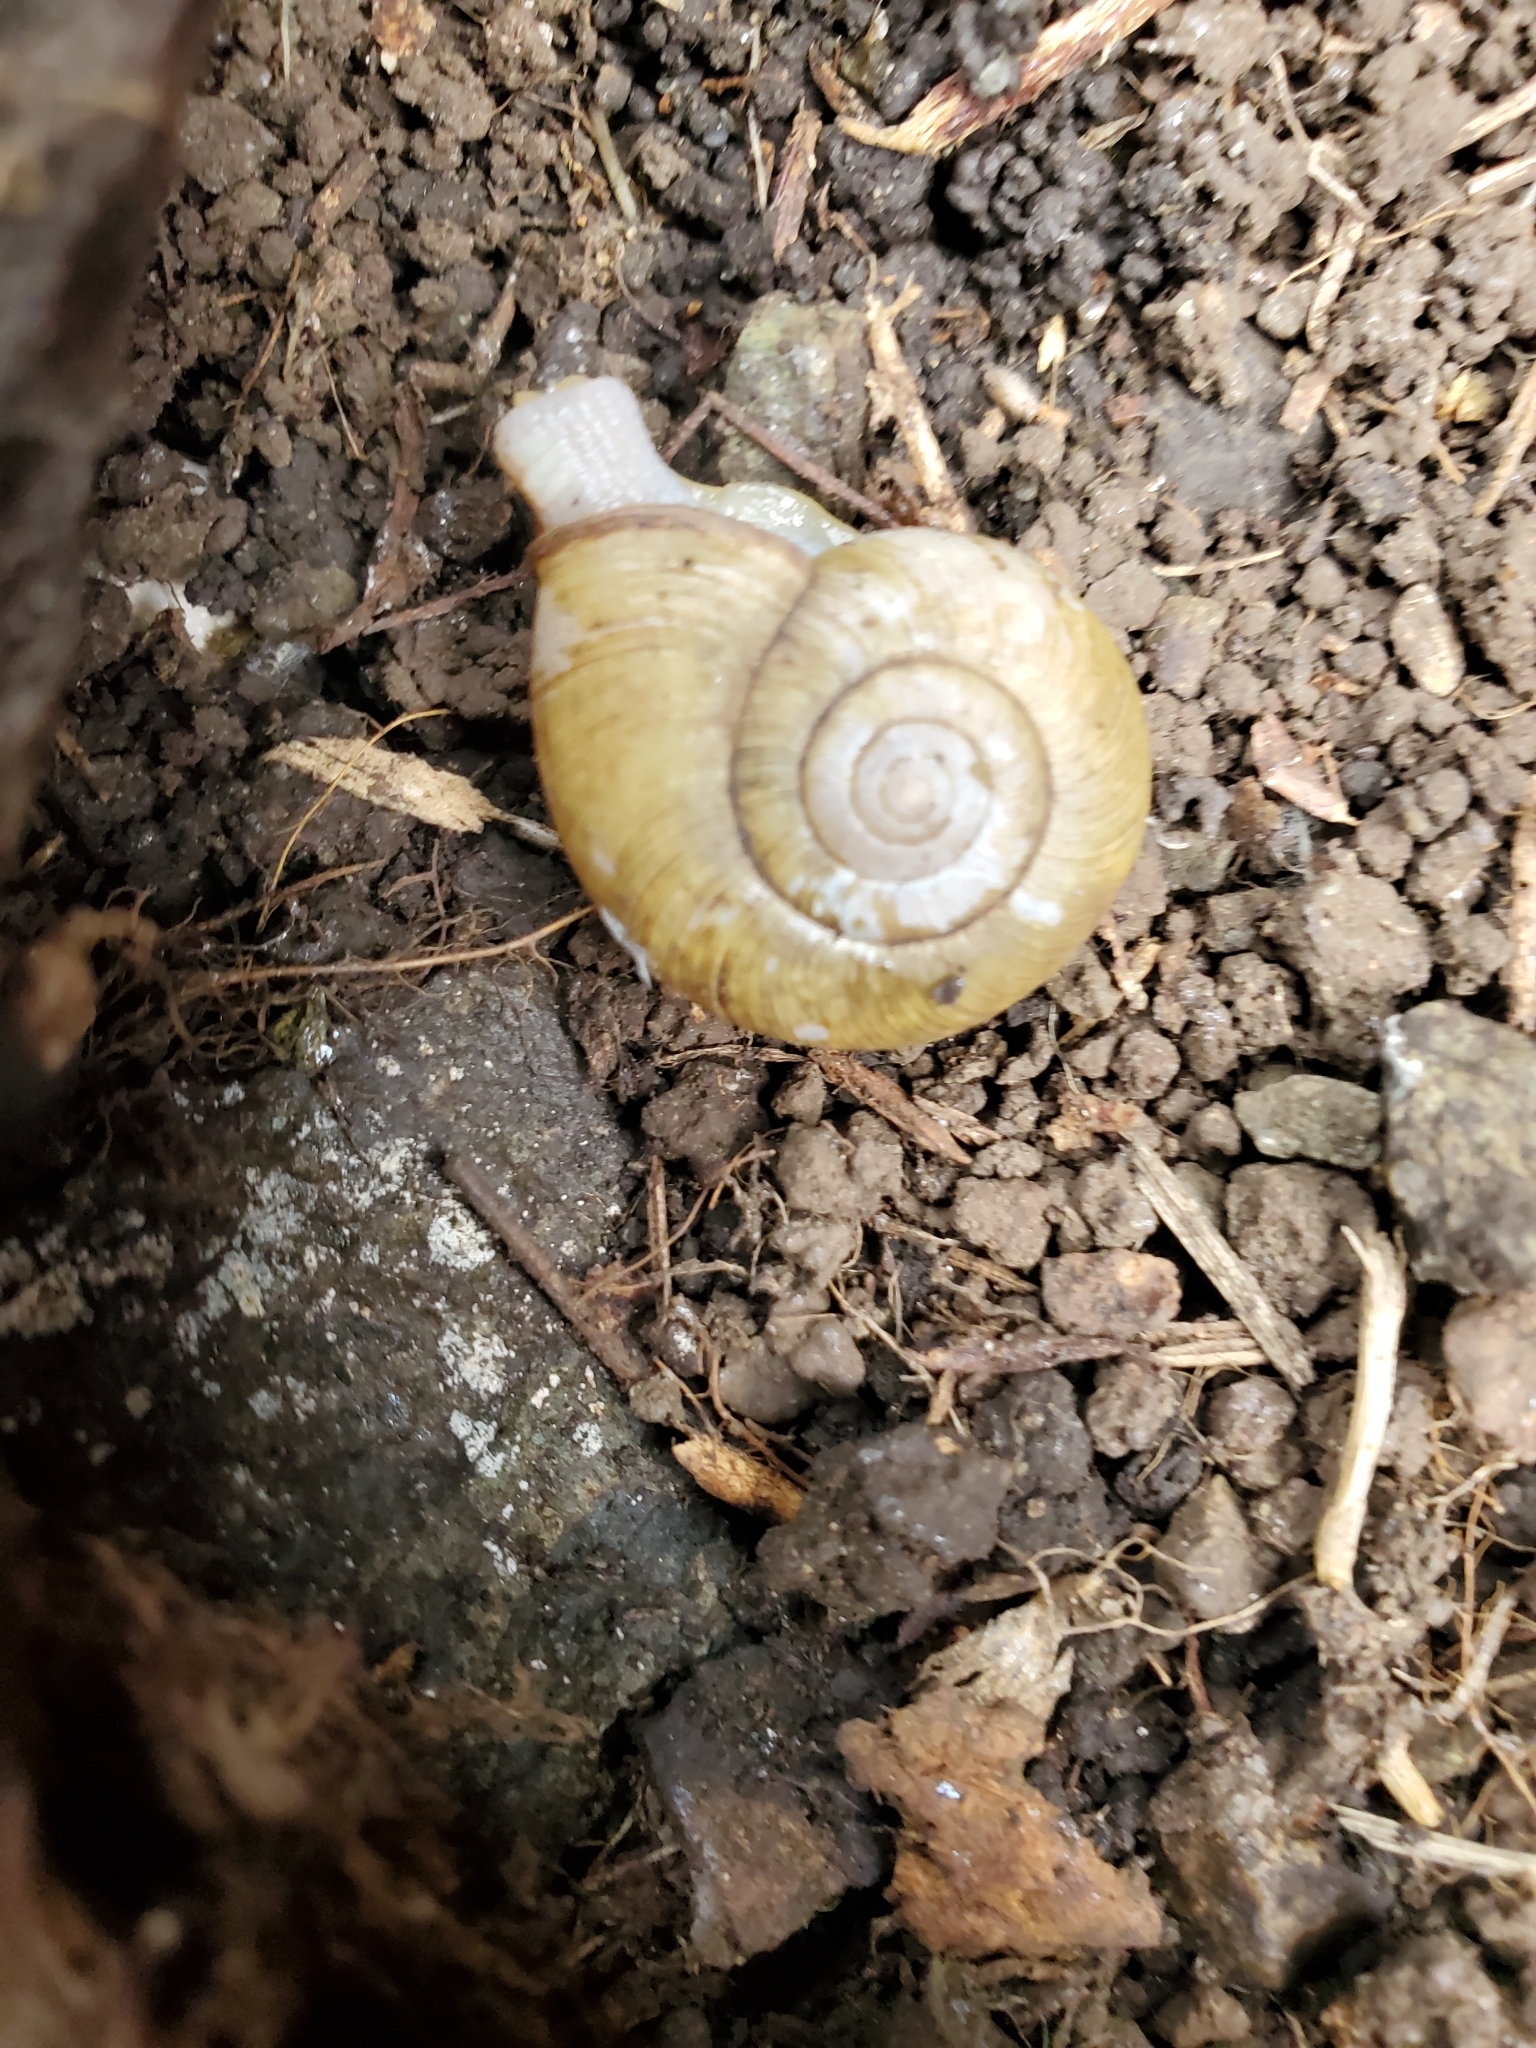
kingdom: Animalia
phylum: Mollusca
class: Gastropoda
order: Stylommatophora
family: Haplotrematidae
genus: Haplotrema
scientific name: Haplotrema vancouverense
